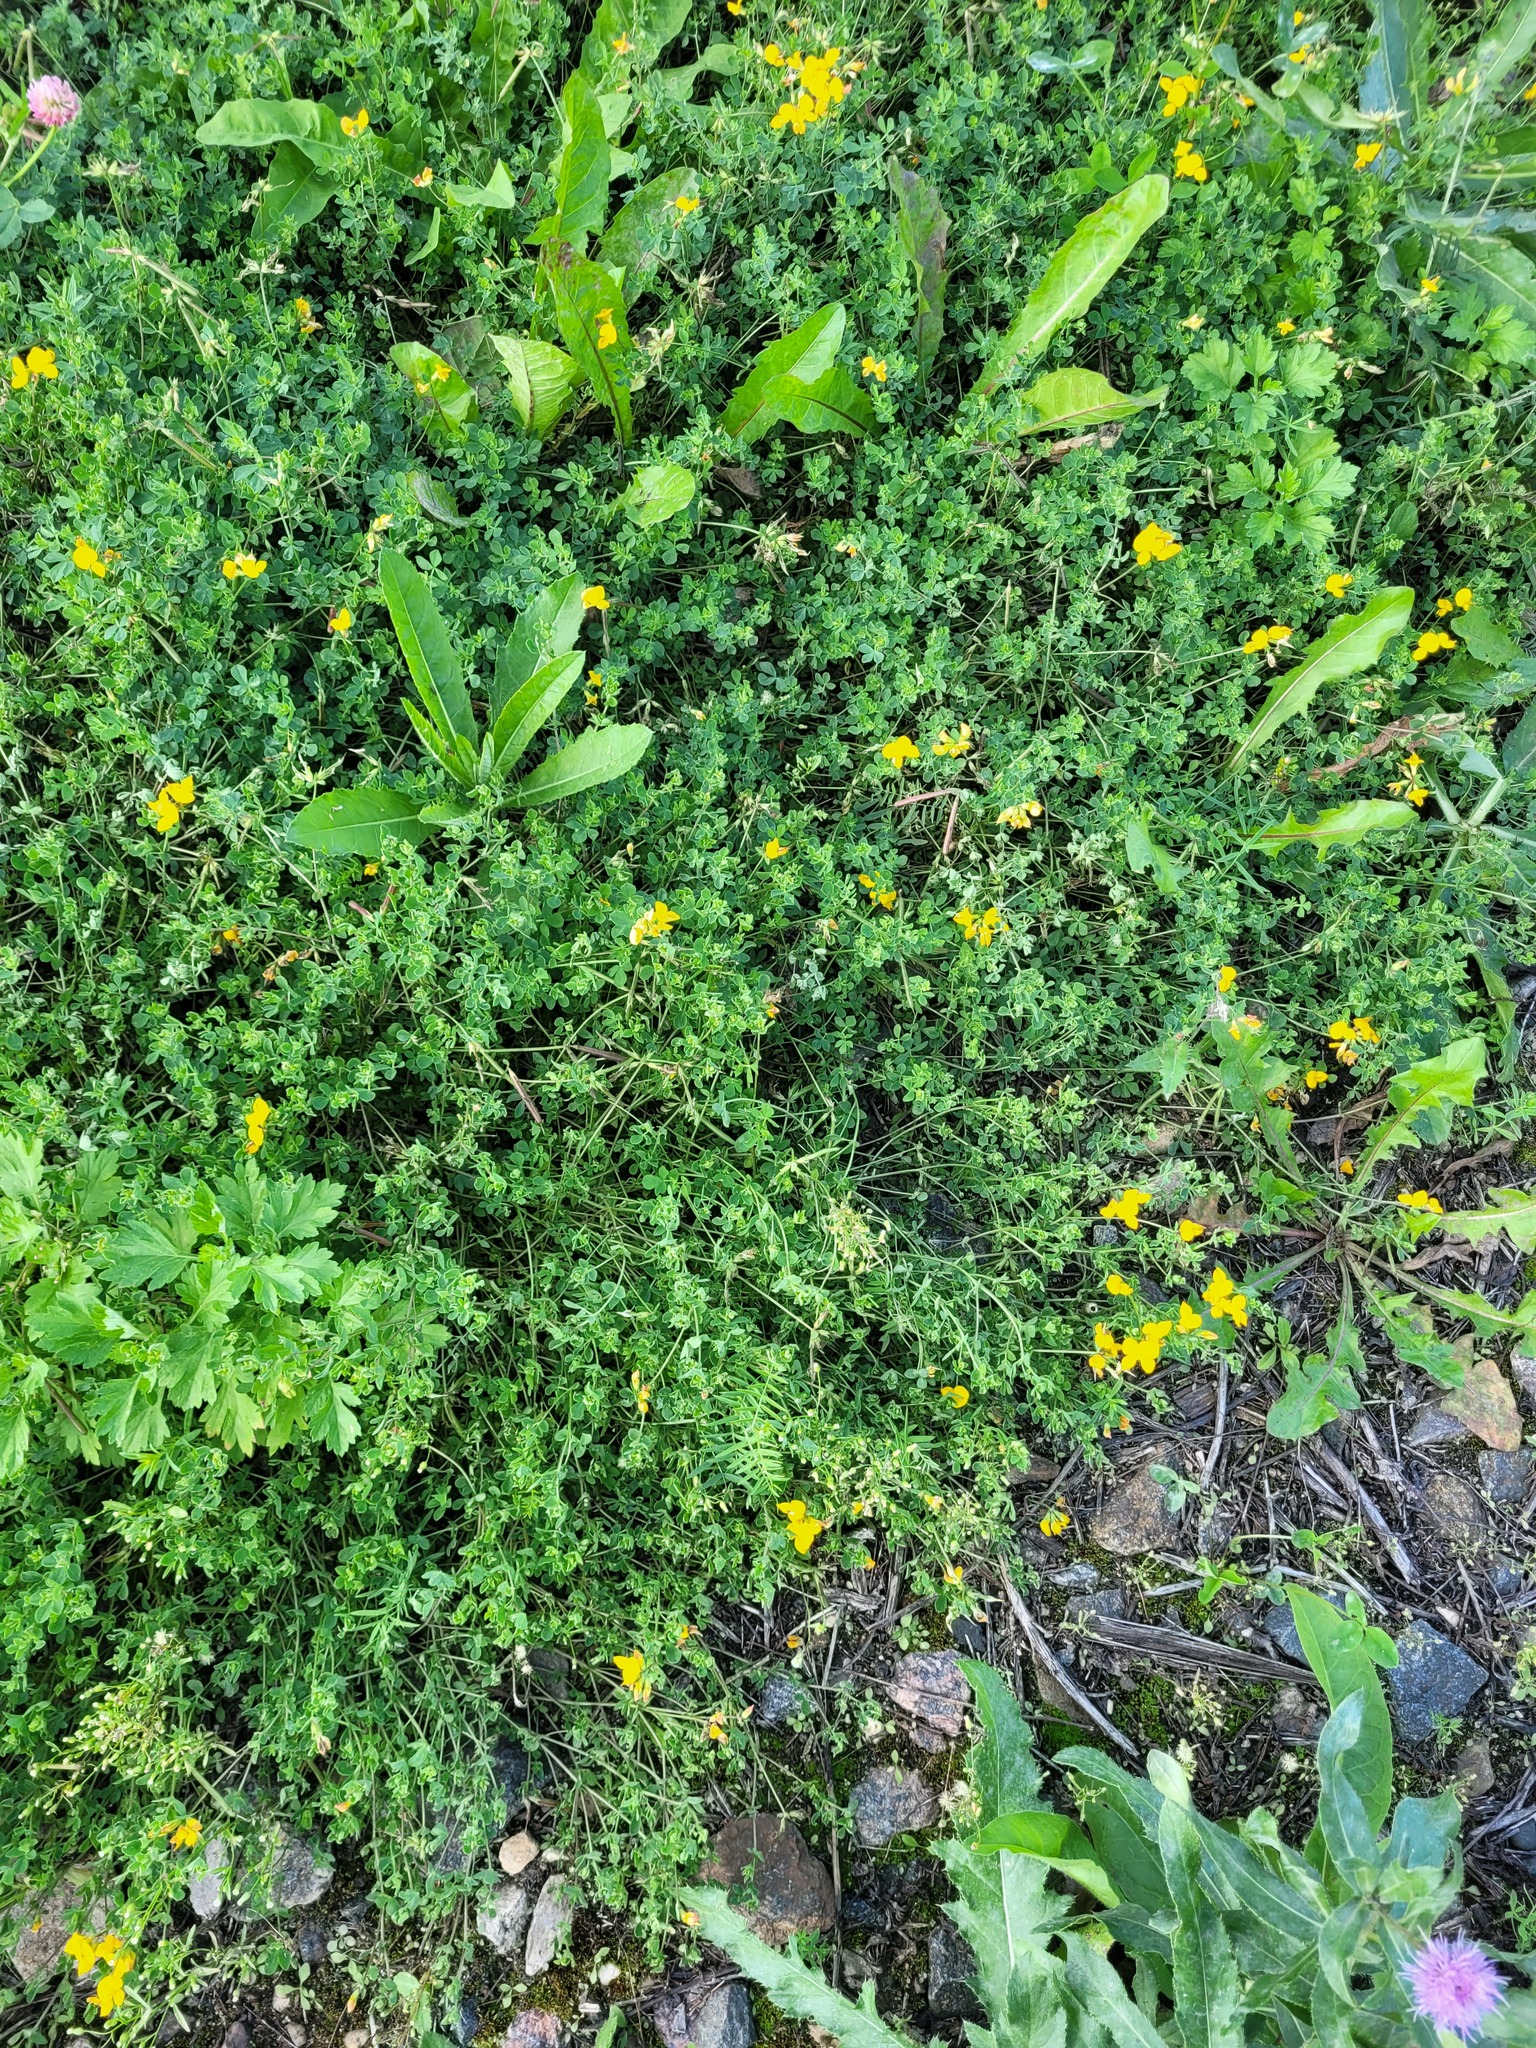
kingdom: Plantae
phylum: Tracheophyta
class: Magnoliopsida
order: Fabales
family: Fabaceae
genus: Lotus
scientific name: Lotus corniculatus
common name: Common bird's-foot-trefoil
